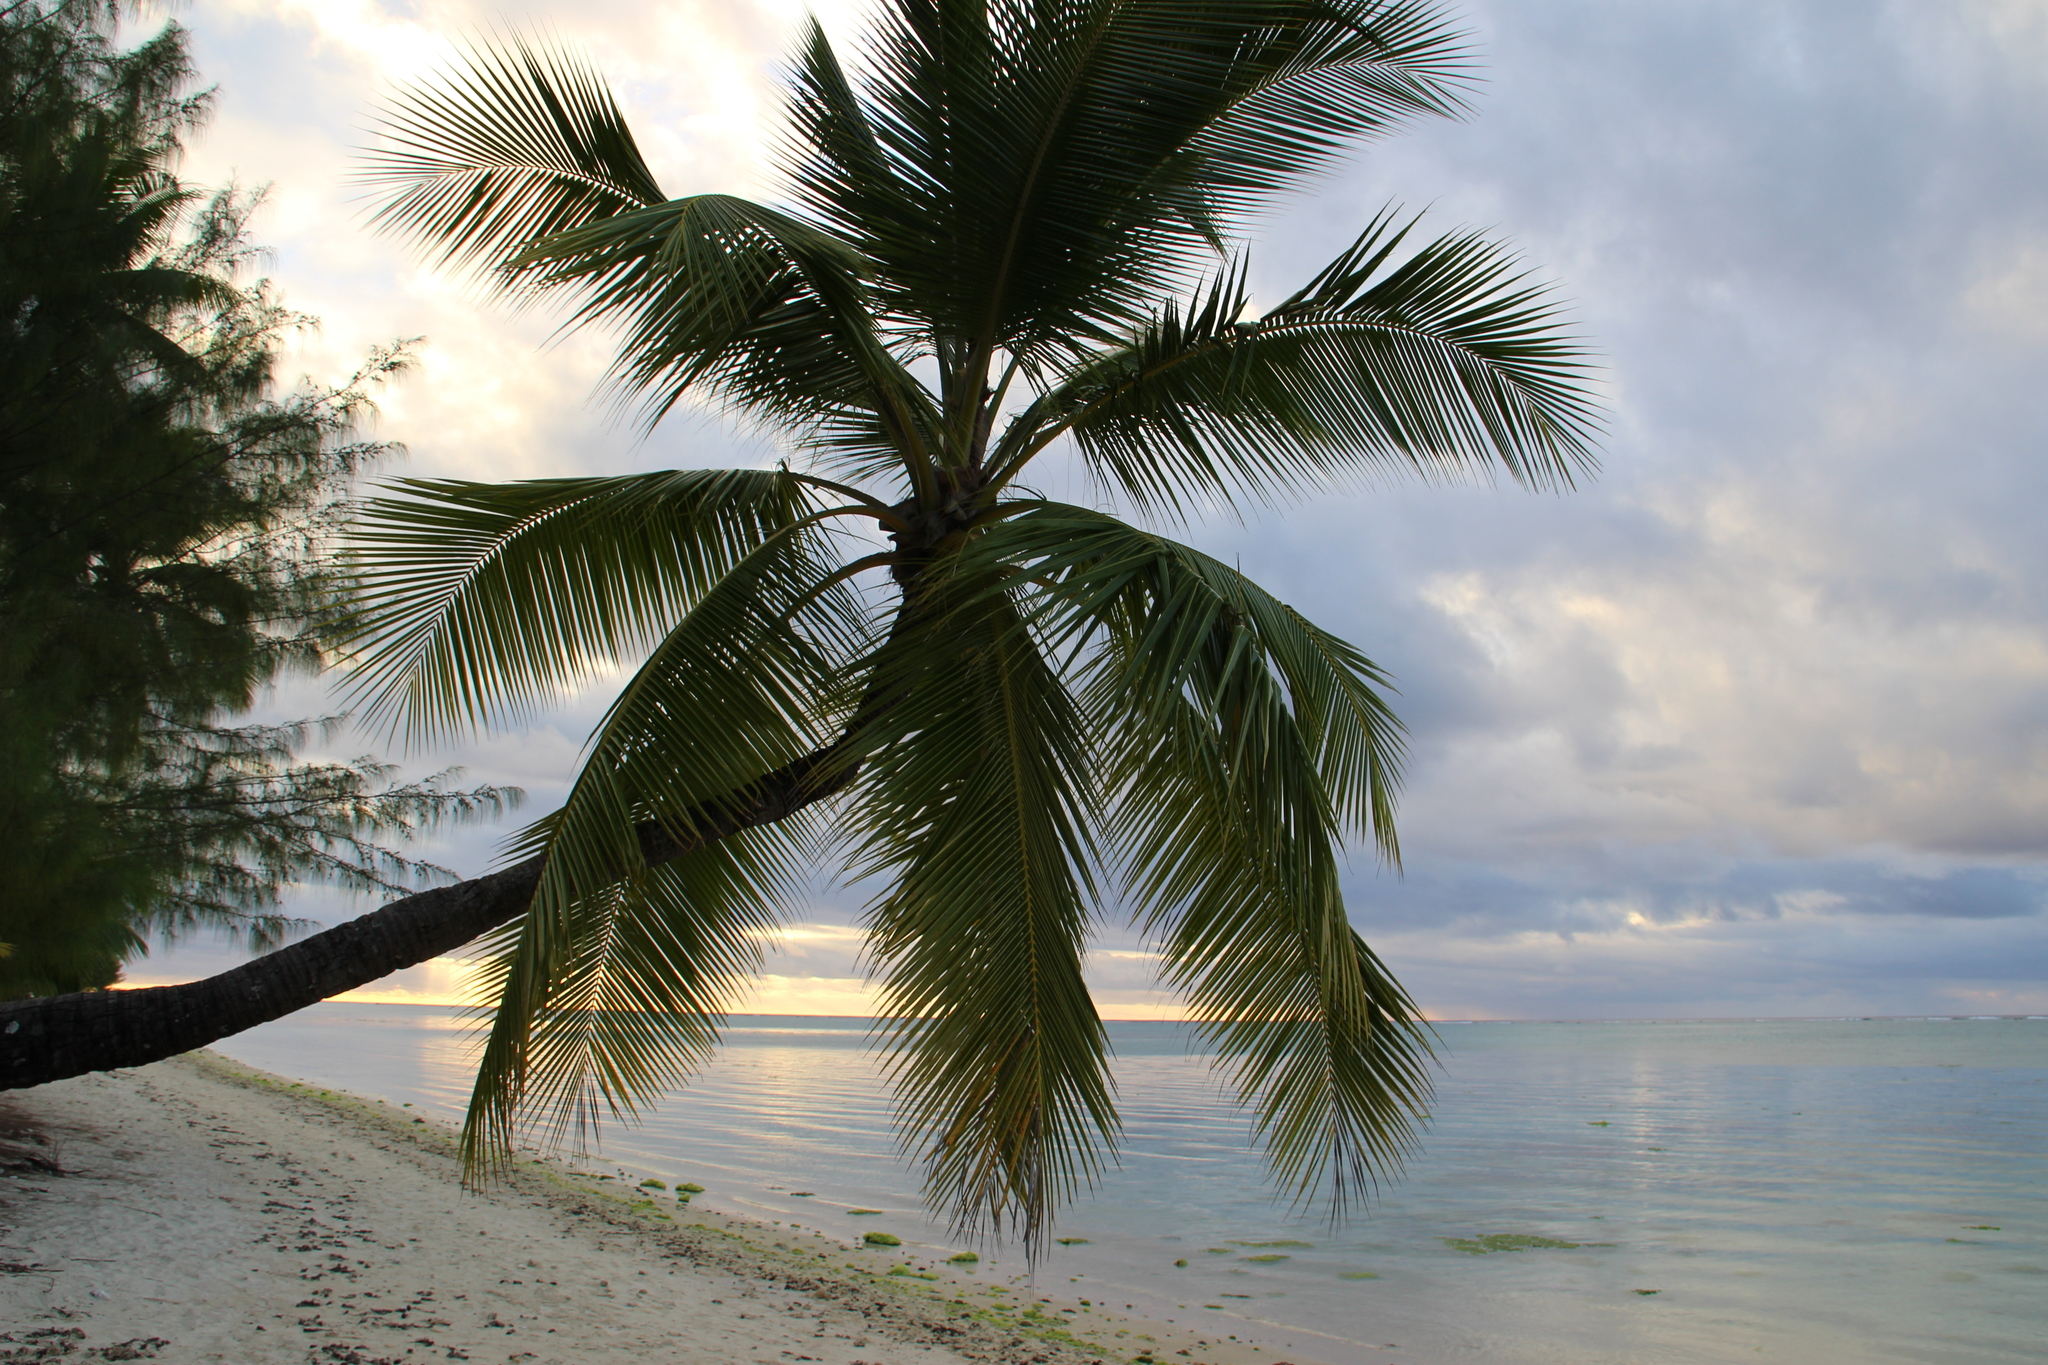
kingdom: Plantae
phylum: Tracheophyta
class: Liliopsida
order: Arecales
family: Arecaceae
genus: Cocos
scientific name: Cocos nucifera
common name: Coconut palm
